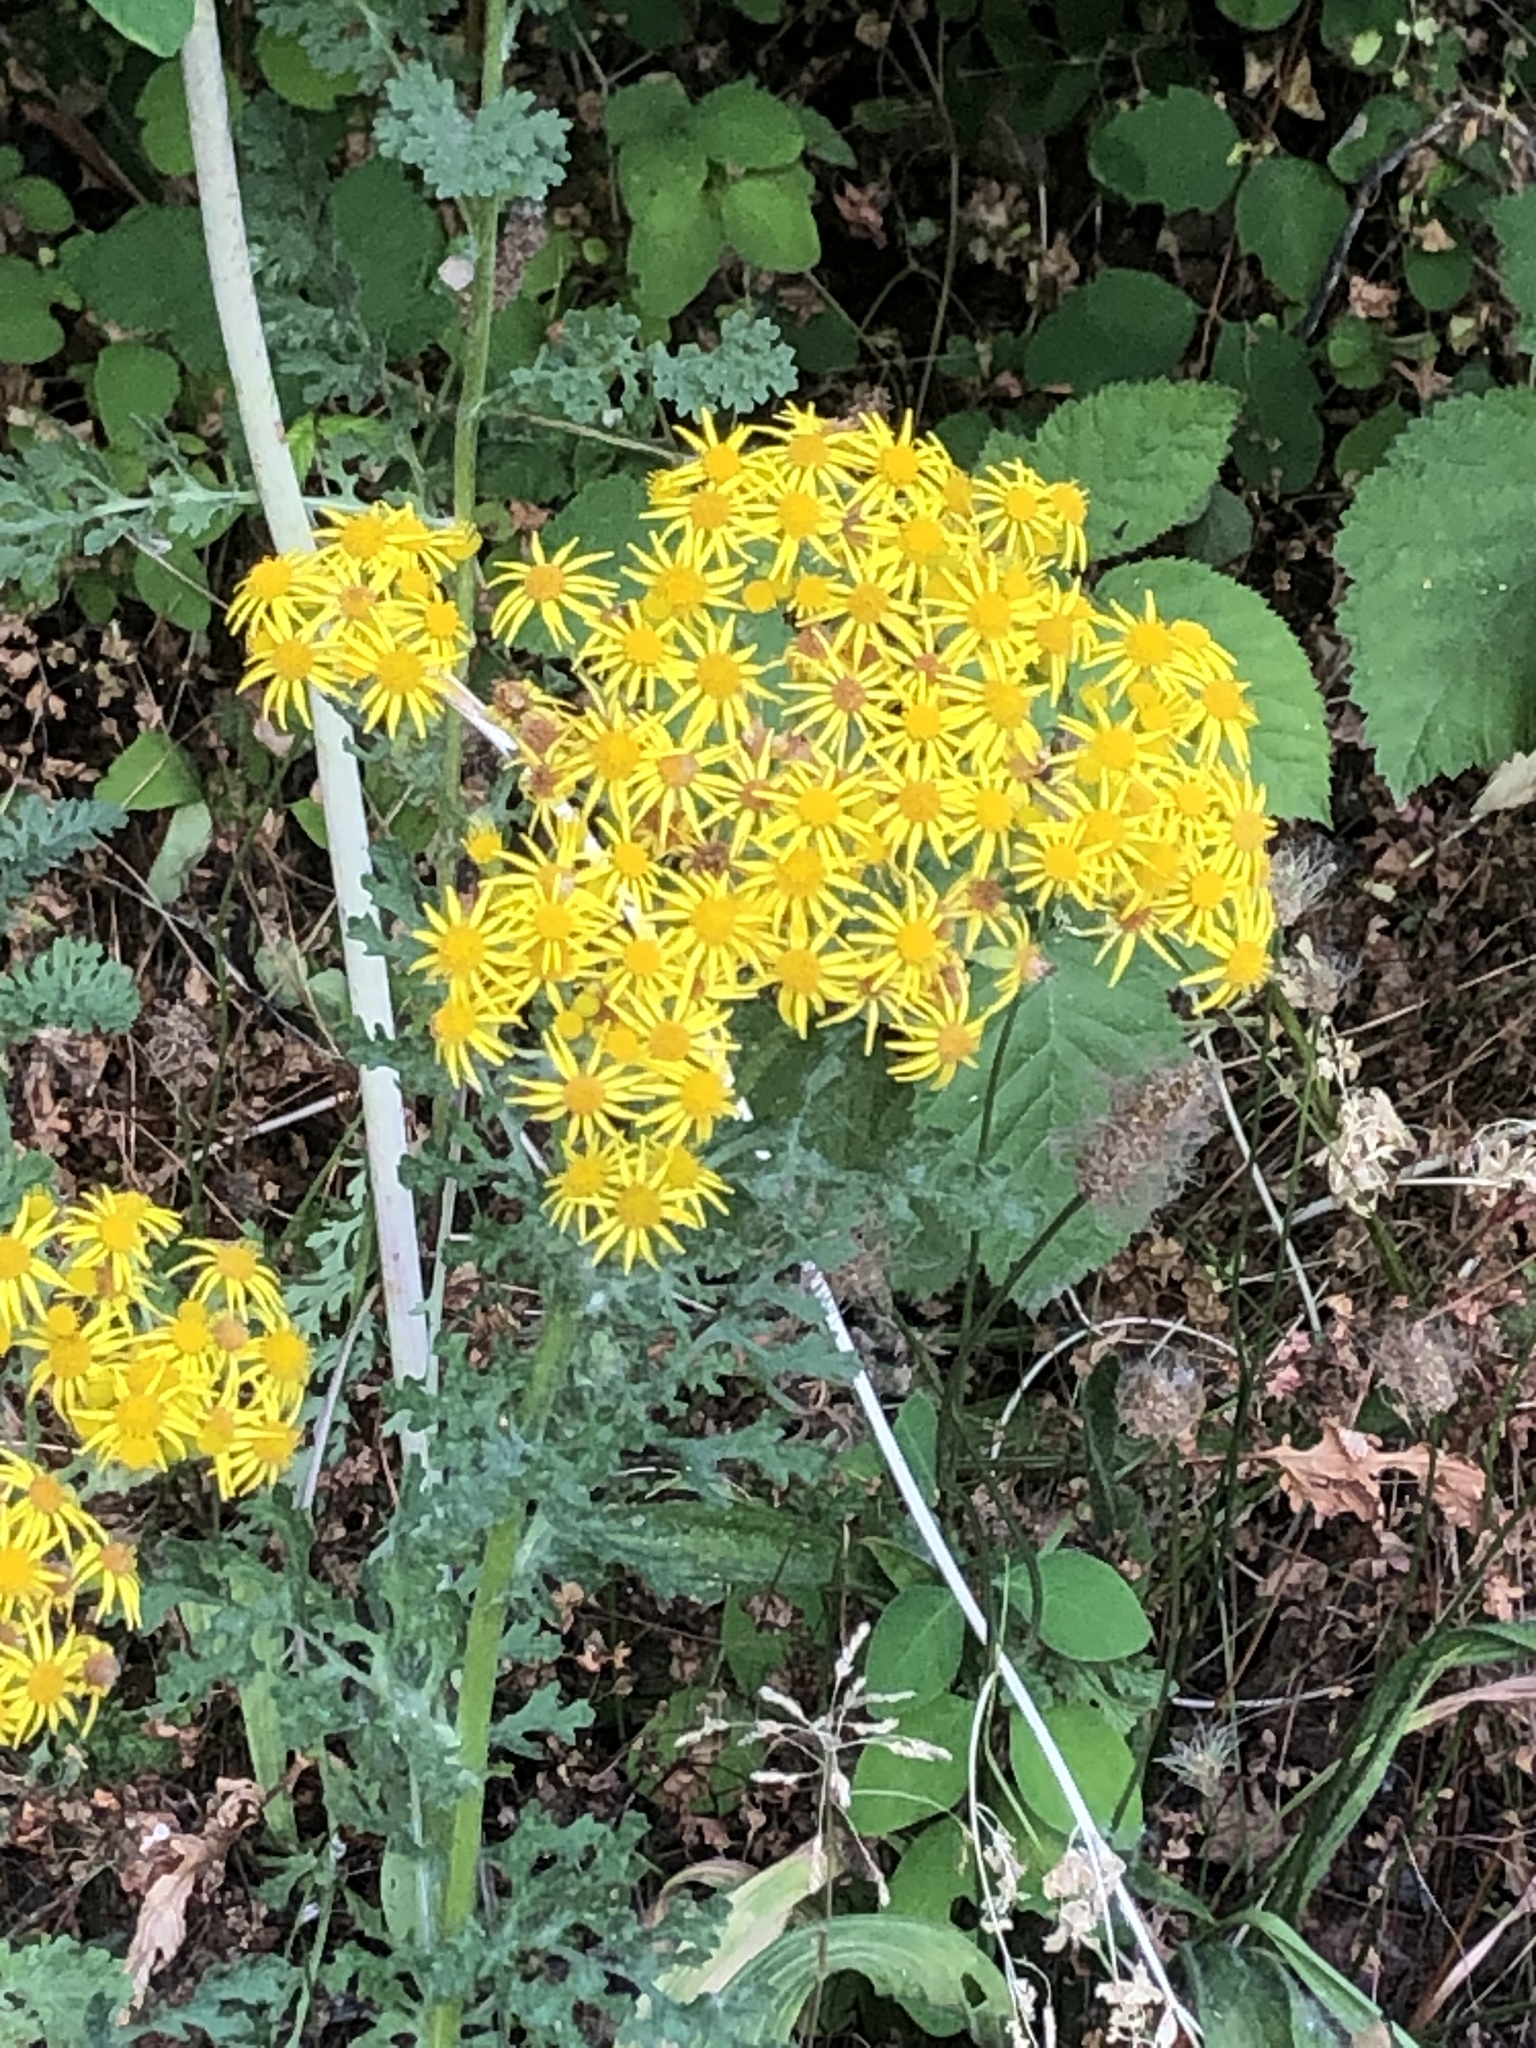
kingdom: Plantae
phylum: Tracheophyta
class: Magnoliopsida
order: Asterales
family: Asteraceae
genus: Jacobaea
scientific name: Jacobaea vulgaris
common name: Stinking willie
